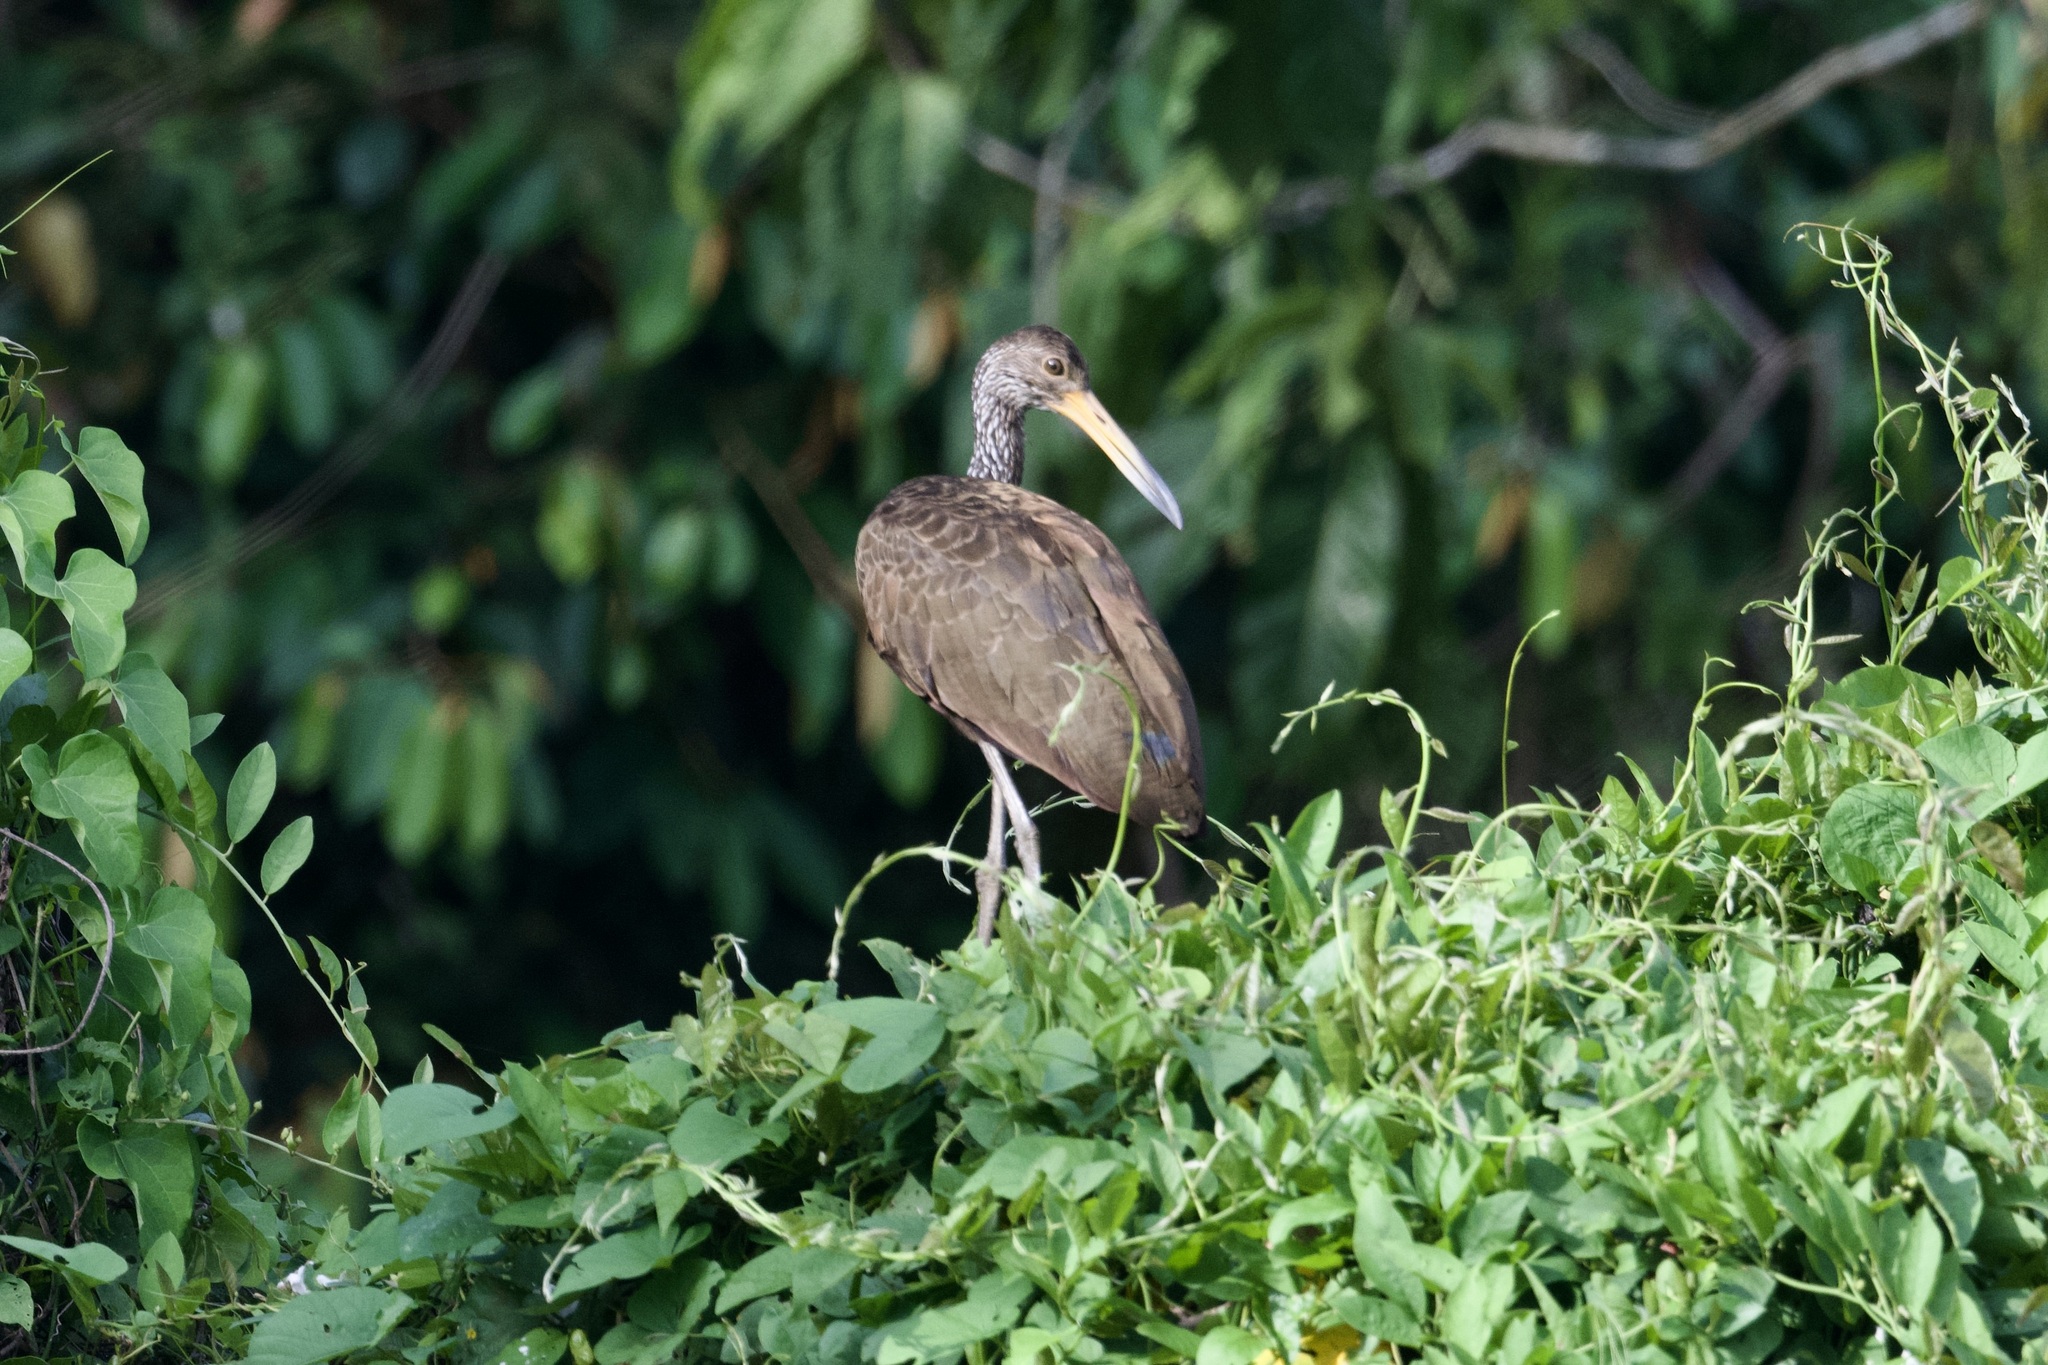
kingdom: Animalia
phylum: Chordata
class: Aves
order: Gruiformes
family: Aramidae
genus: Aramus
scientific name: Aramus guarauna
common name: Limpkin
